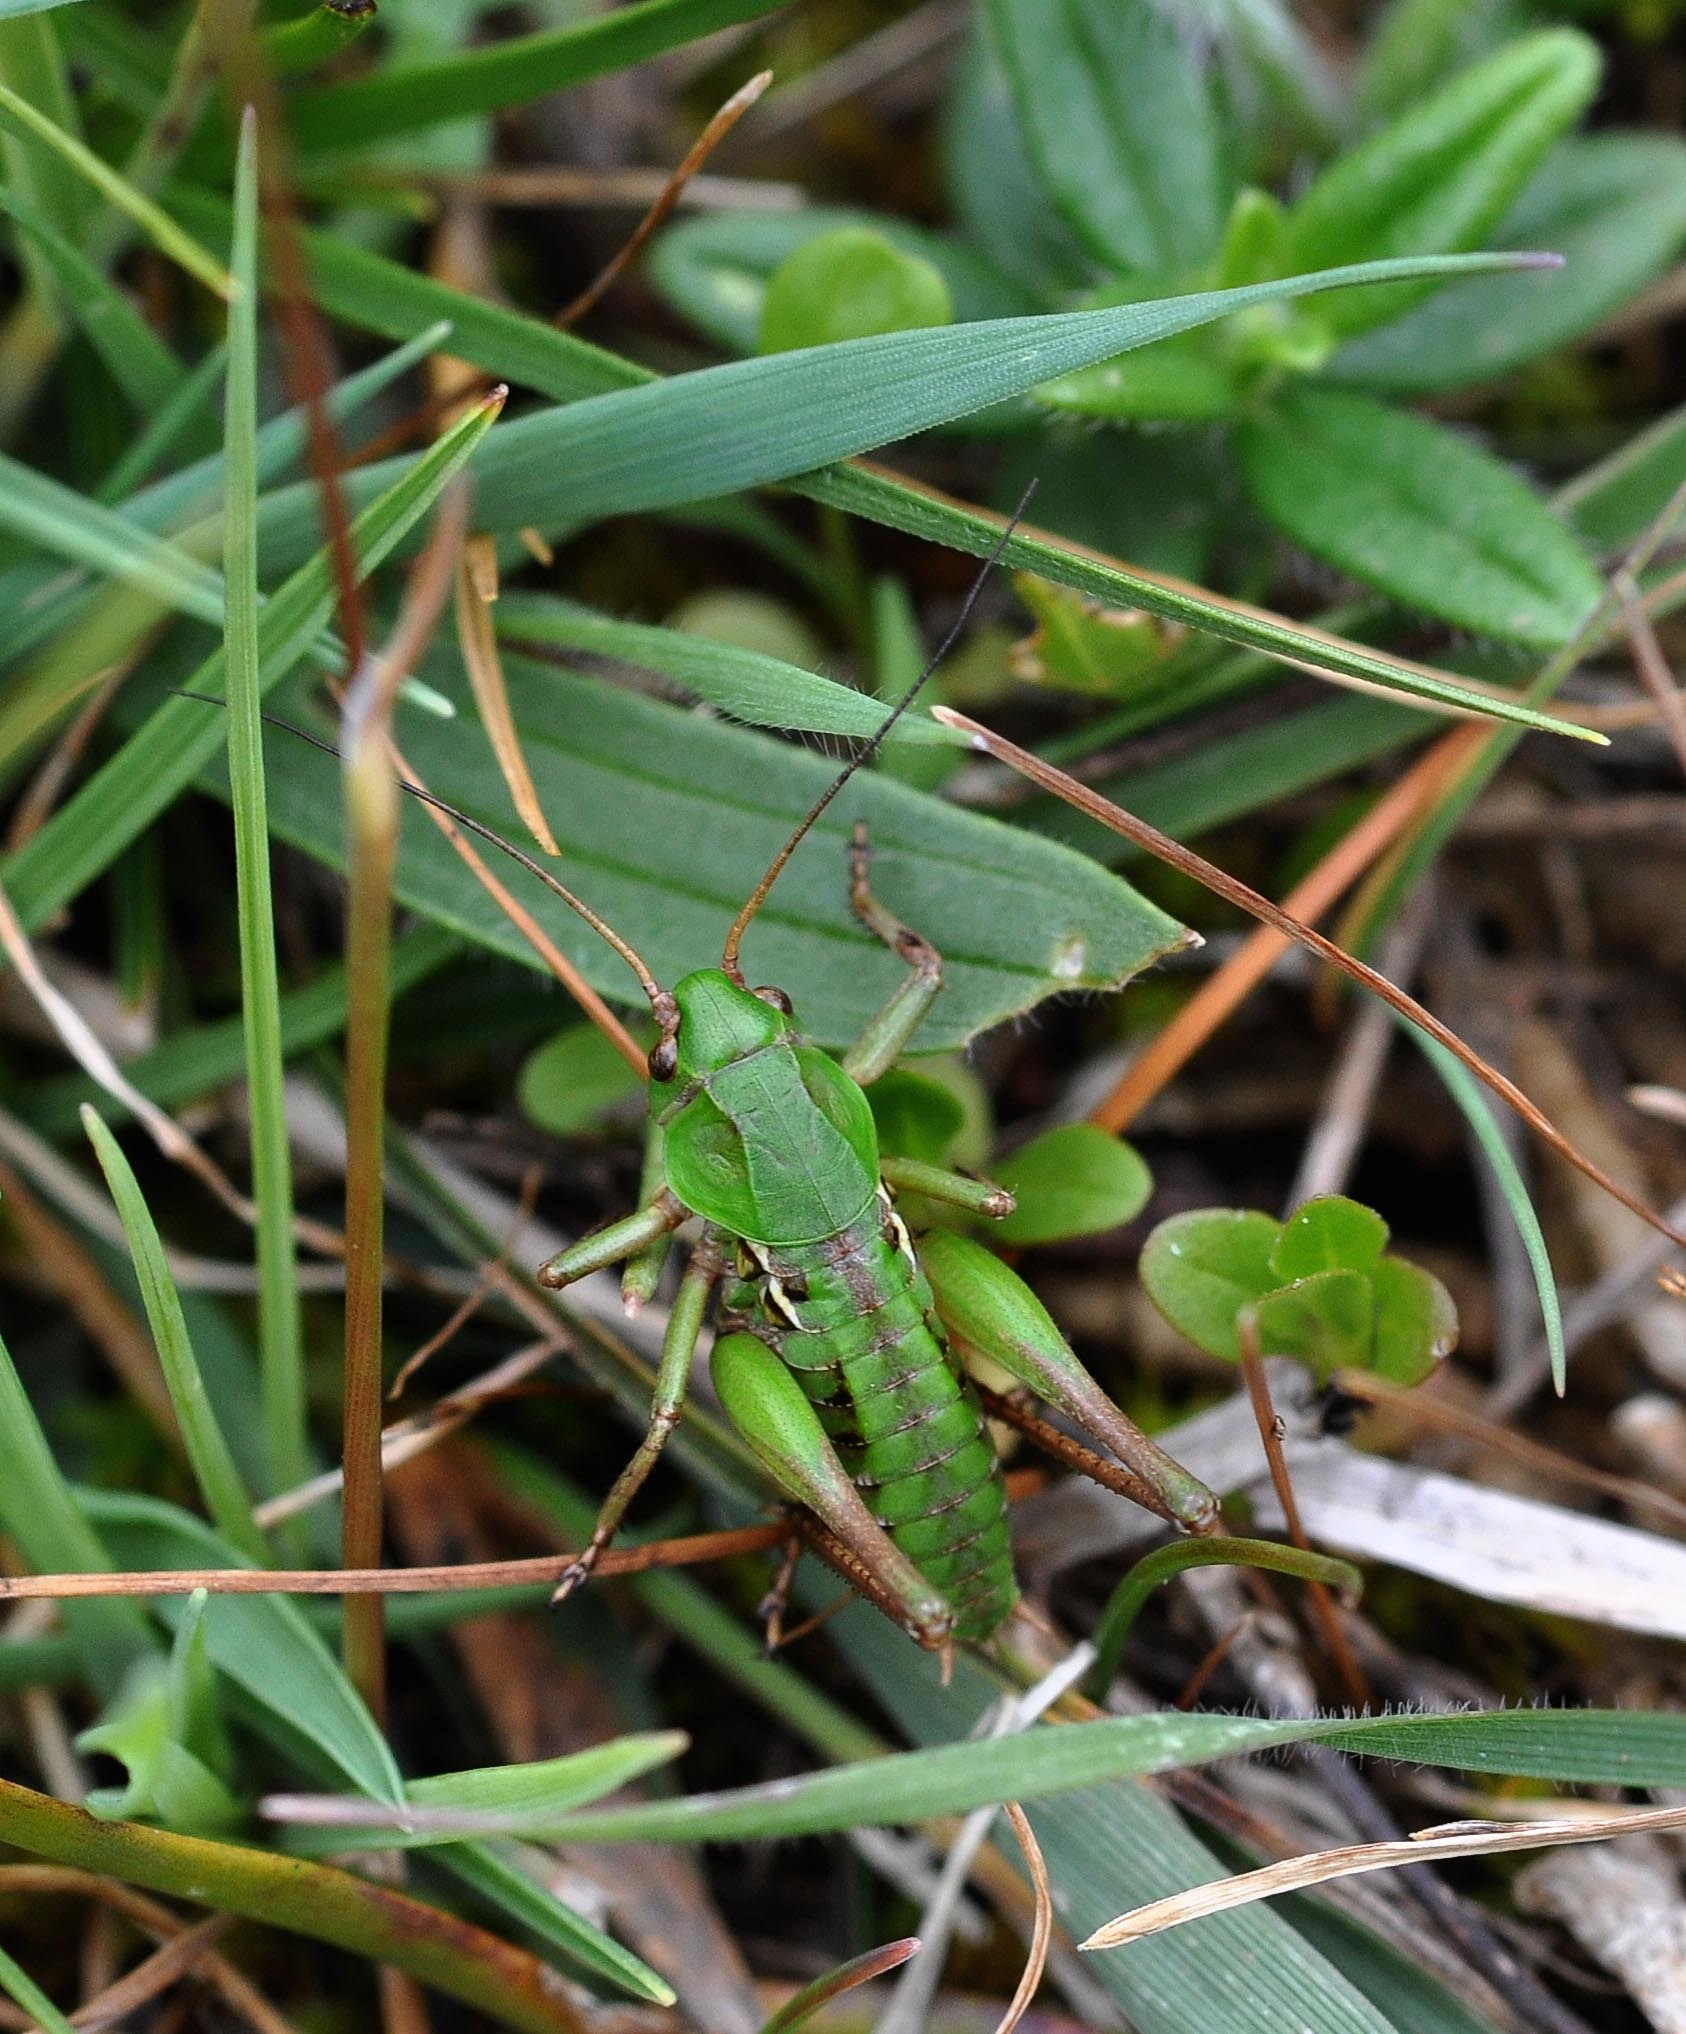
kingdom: Animalia
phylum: Arthropoda
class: Insecta
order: Orthoptera
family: Tettigoniidae
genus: Decticus
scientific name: Decticus verrucivorus
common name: Wart-biter
